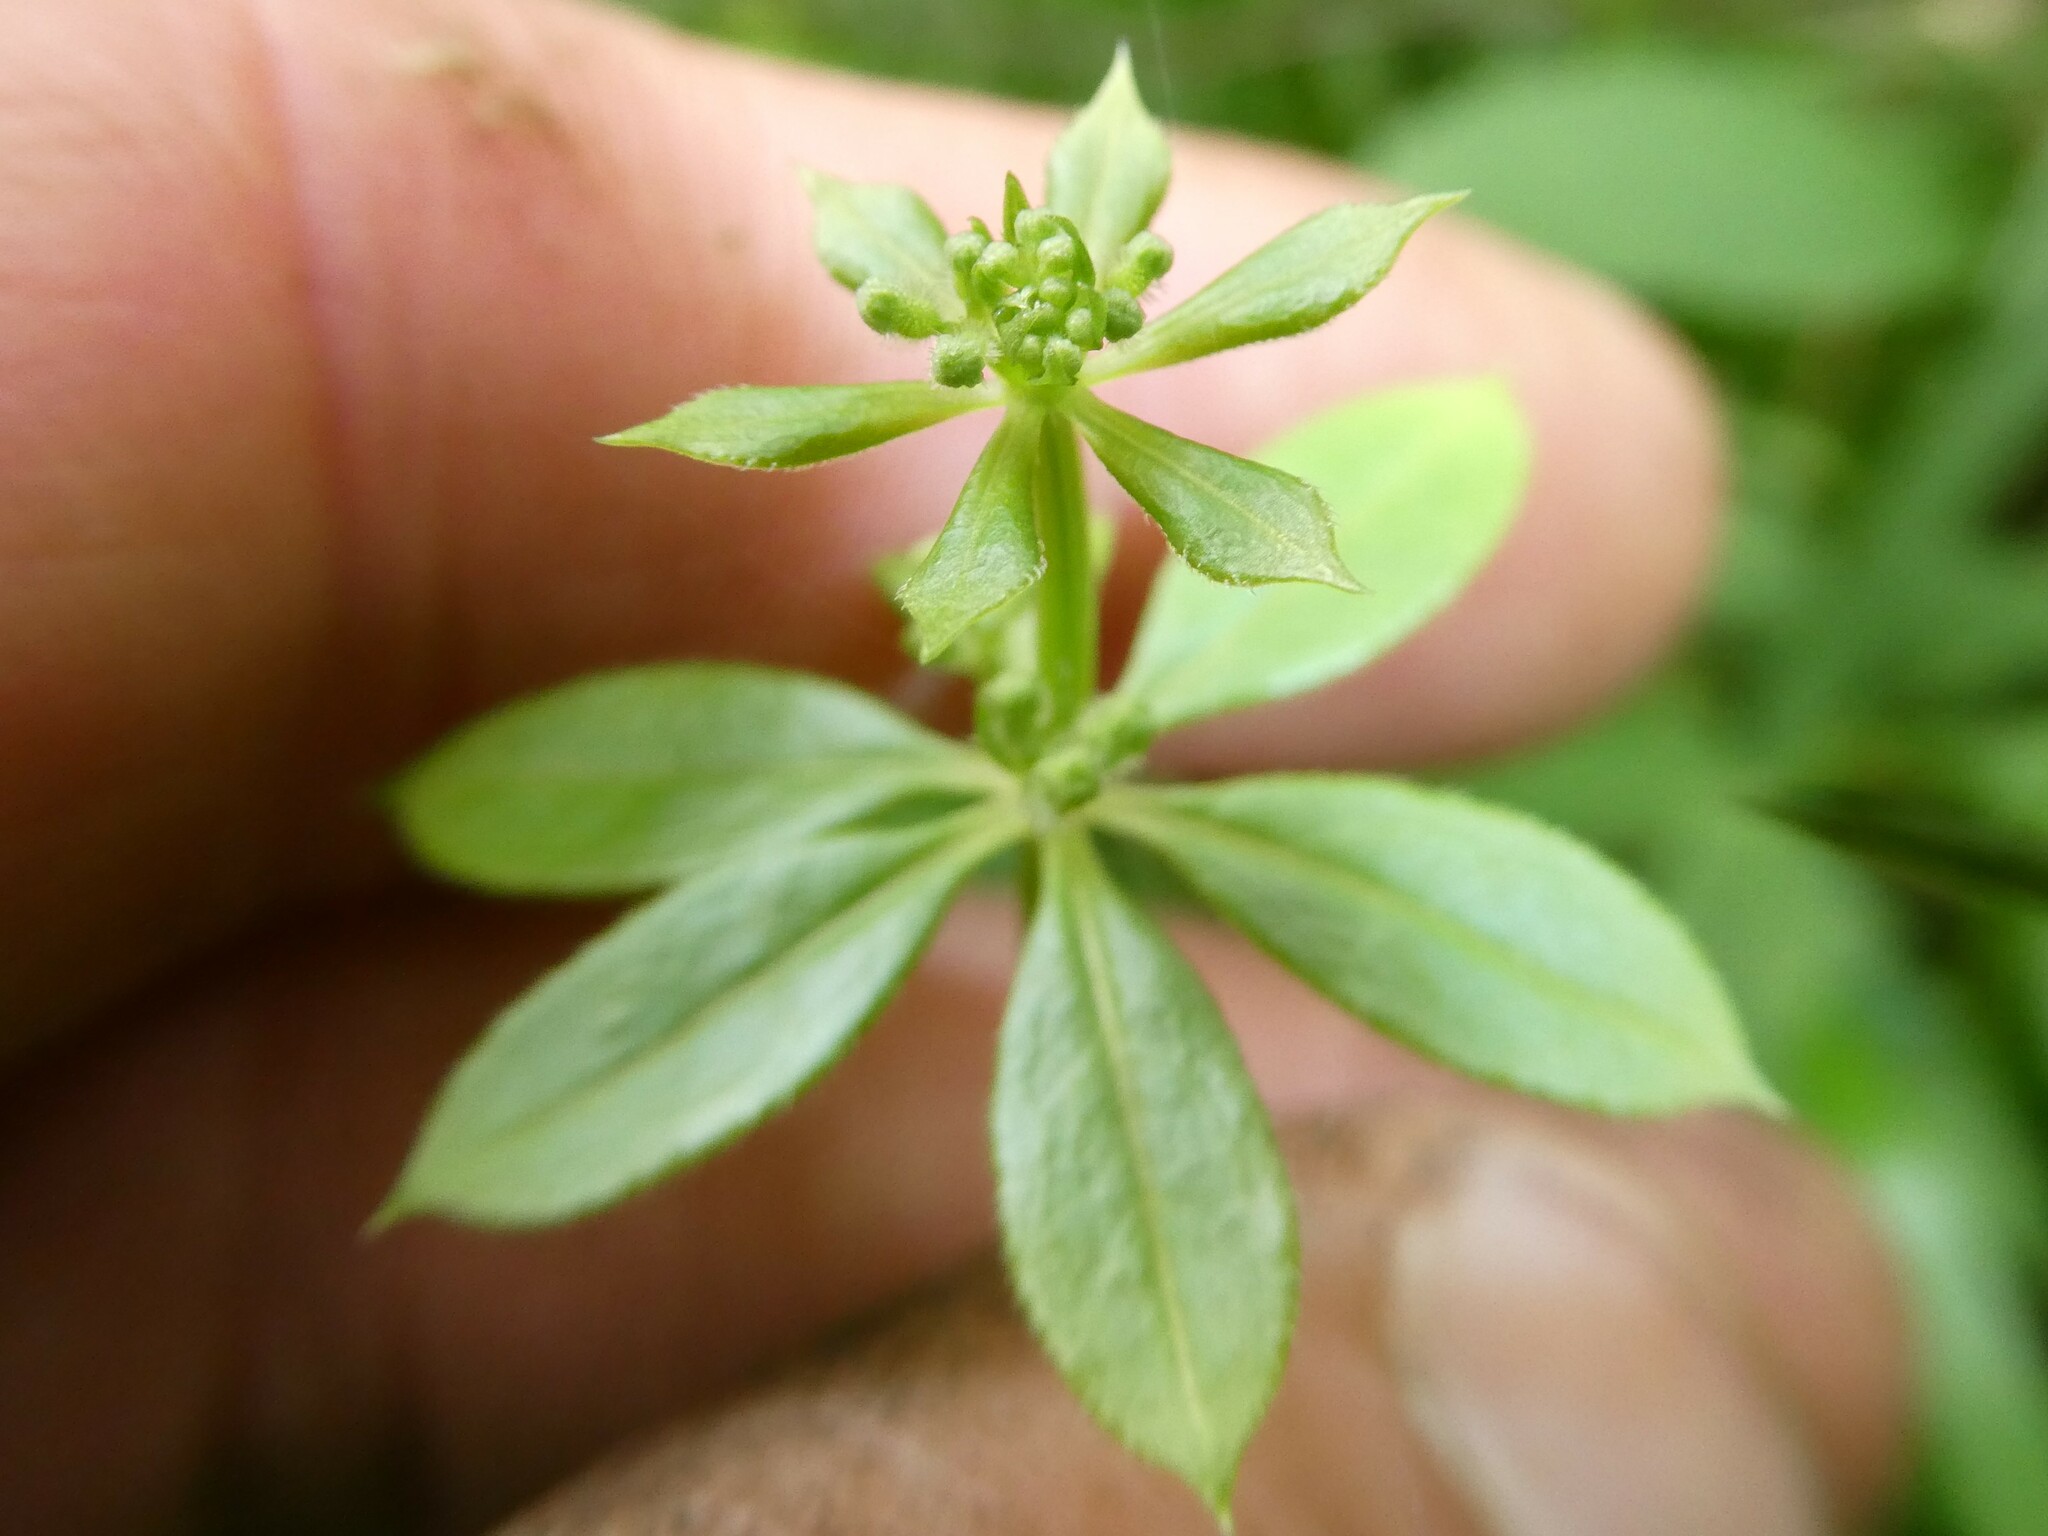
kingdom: Plantae
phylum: Tracheophyta
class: Magnoliopsida
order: Gentianales
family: Rubiaceae
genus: Galium
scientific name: Galium triflorum
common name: Fragrant bedstraw
